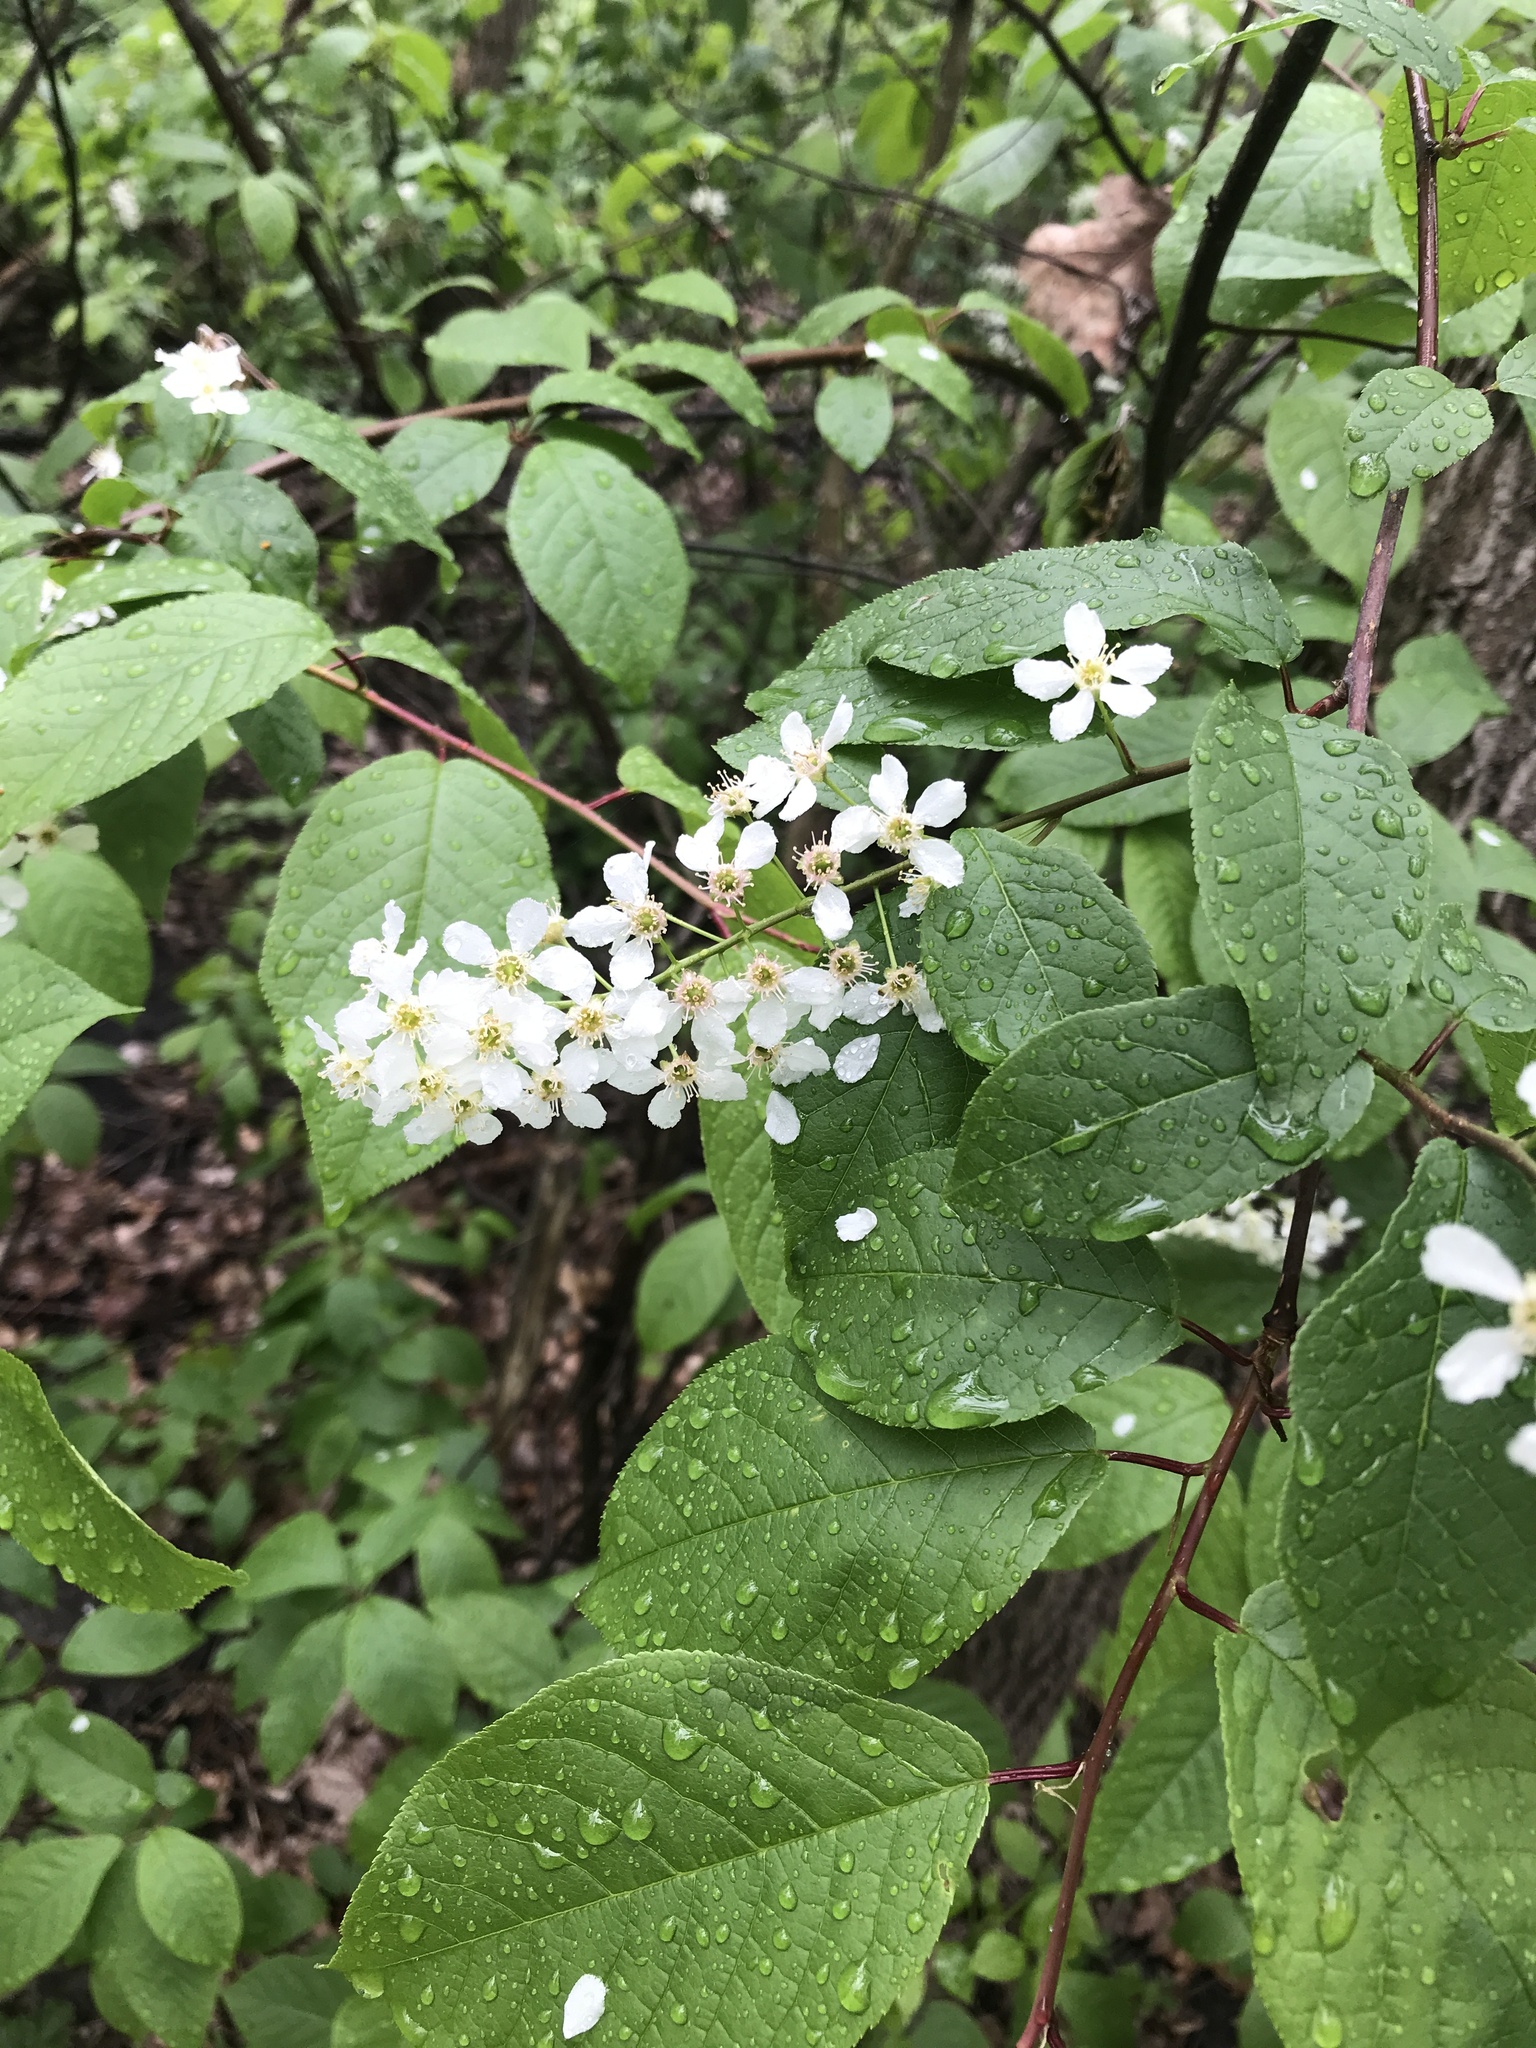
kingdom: Plantae
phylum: Tracheophyta
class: Magnoliopsida
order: Rosales
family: Rosaceae
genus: Prunus
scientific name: Prunus padus
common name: Bird cherry
